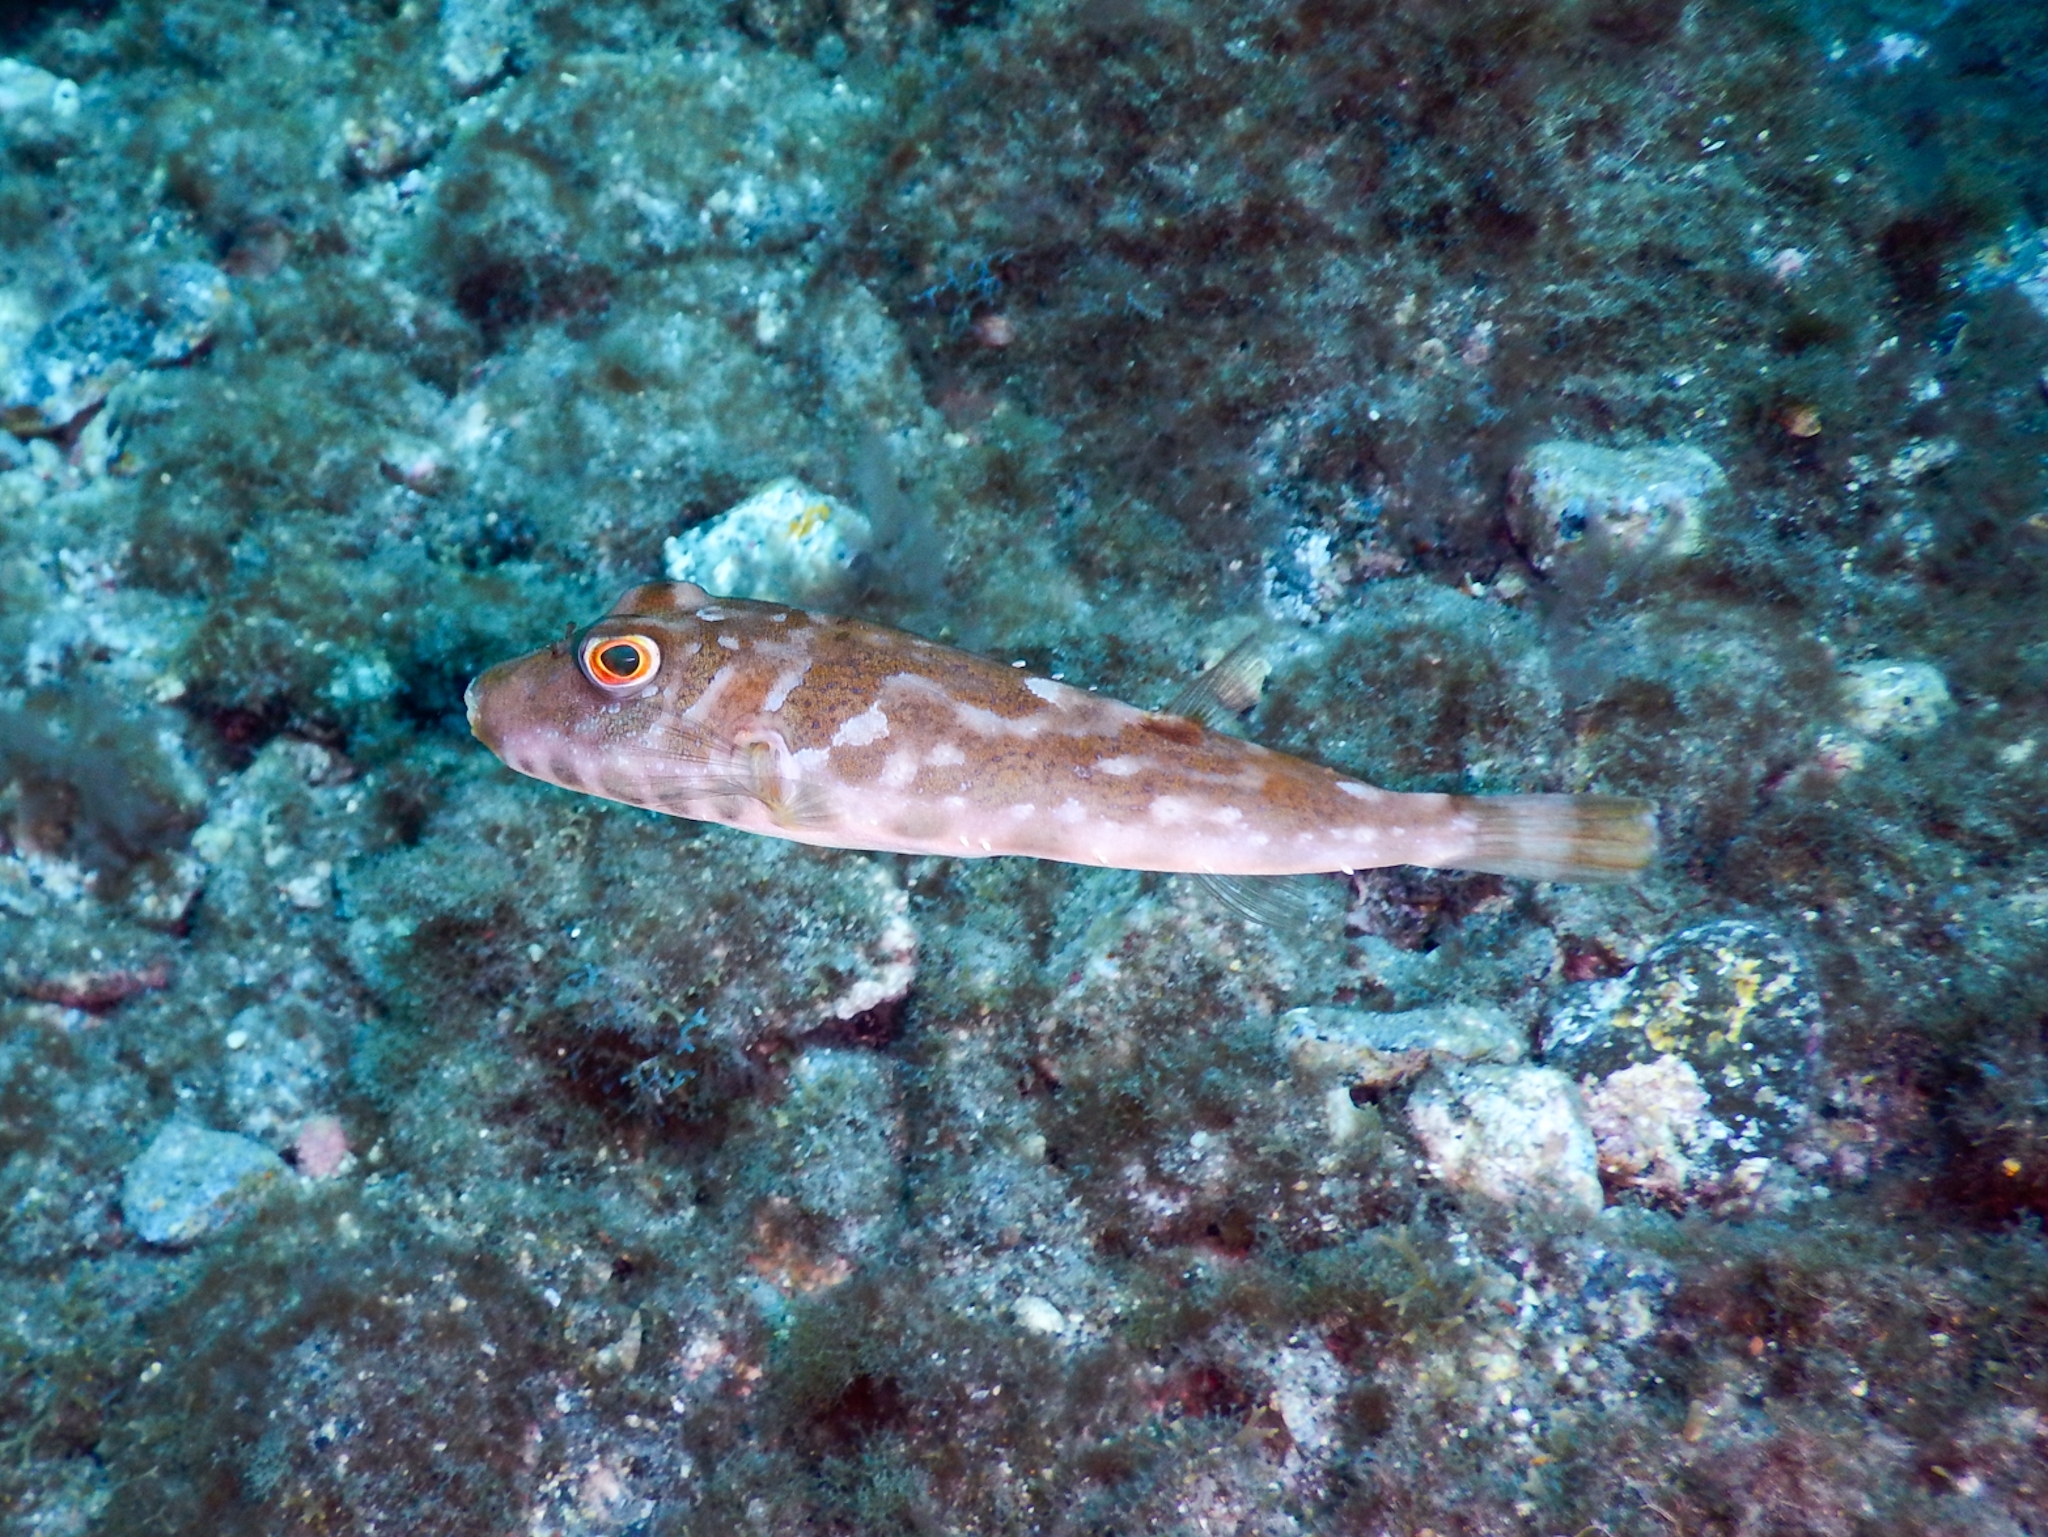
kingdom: Animalia
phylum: Chordata
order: Tetraodontiformes
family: Tetraodontidae
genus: Sphoeroides
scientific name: Sphoeroides marmoratus
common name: Guinean puffer
